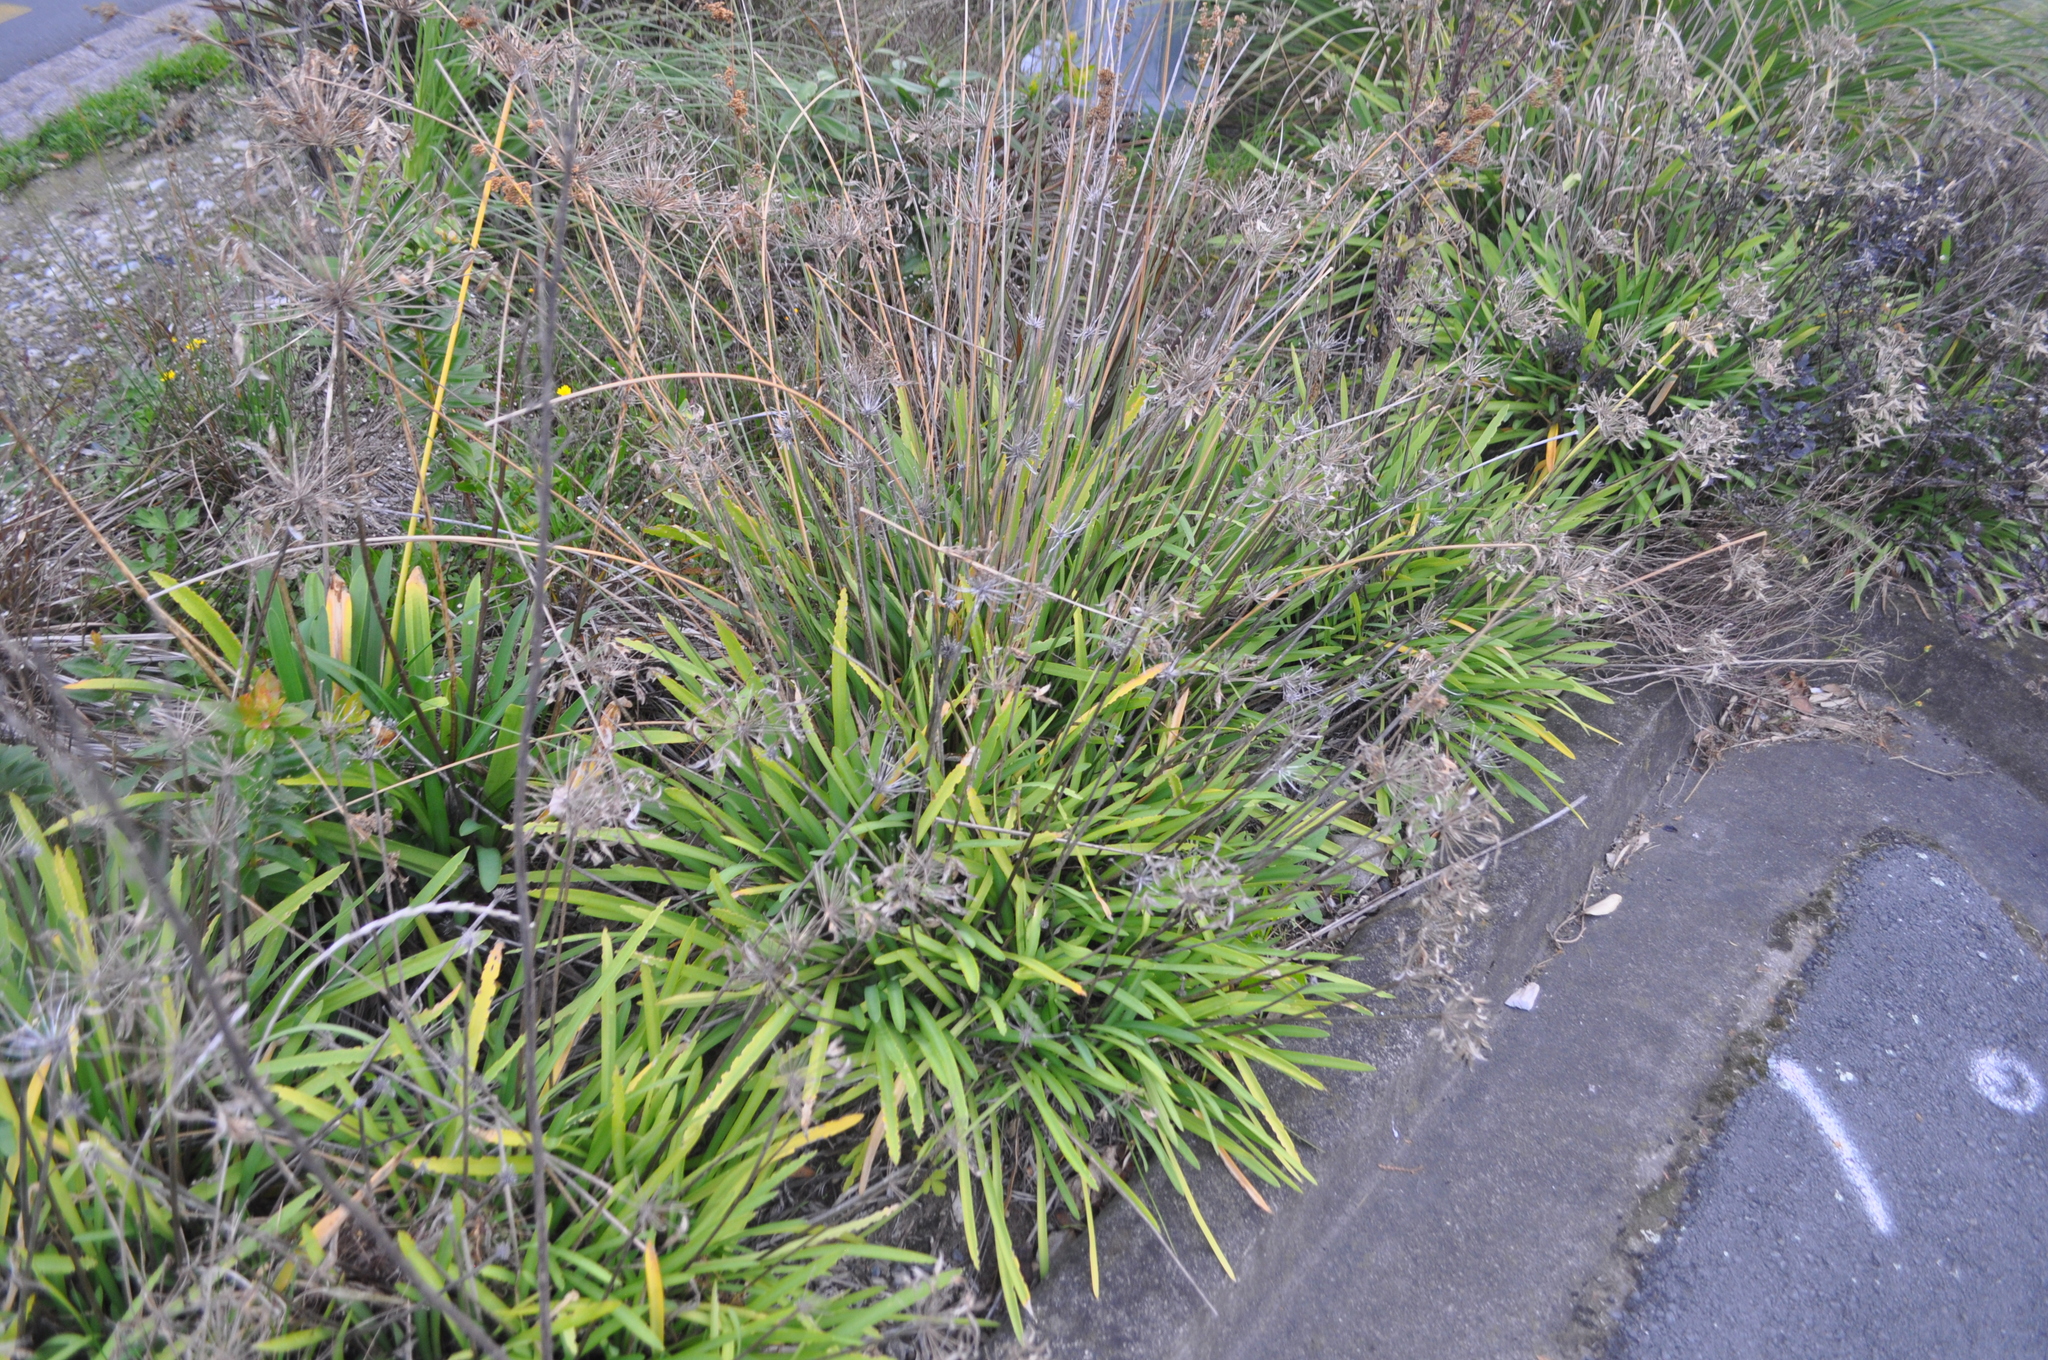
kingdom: Plantae
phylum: Tracheophyta
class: Liliopsida
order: Asparagales
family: Amaryllidaceae
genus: Agapanthus
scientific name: Agapanthus praecox
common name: African-lily
